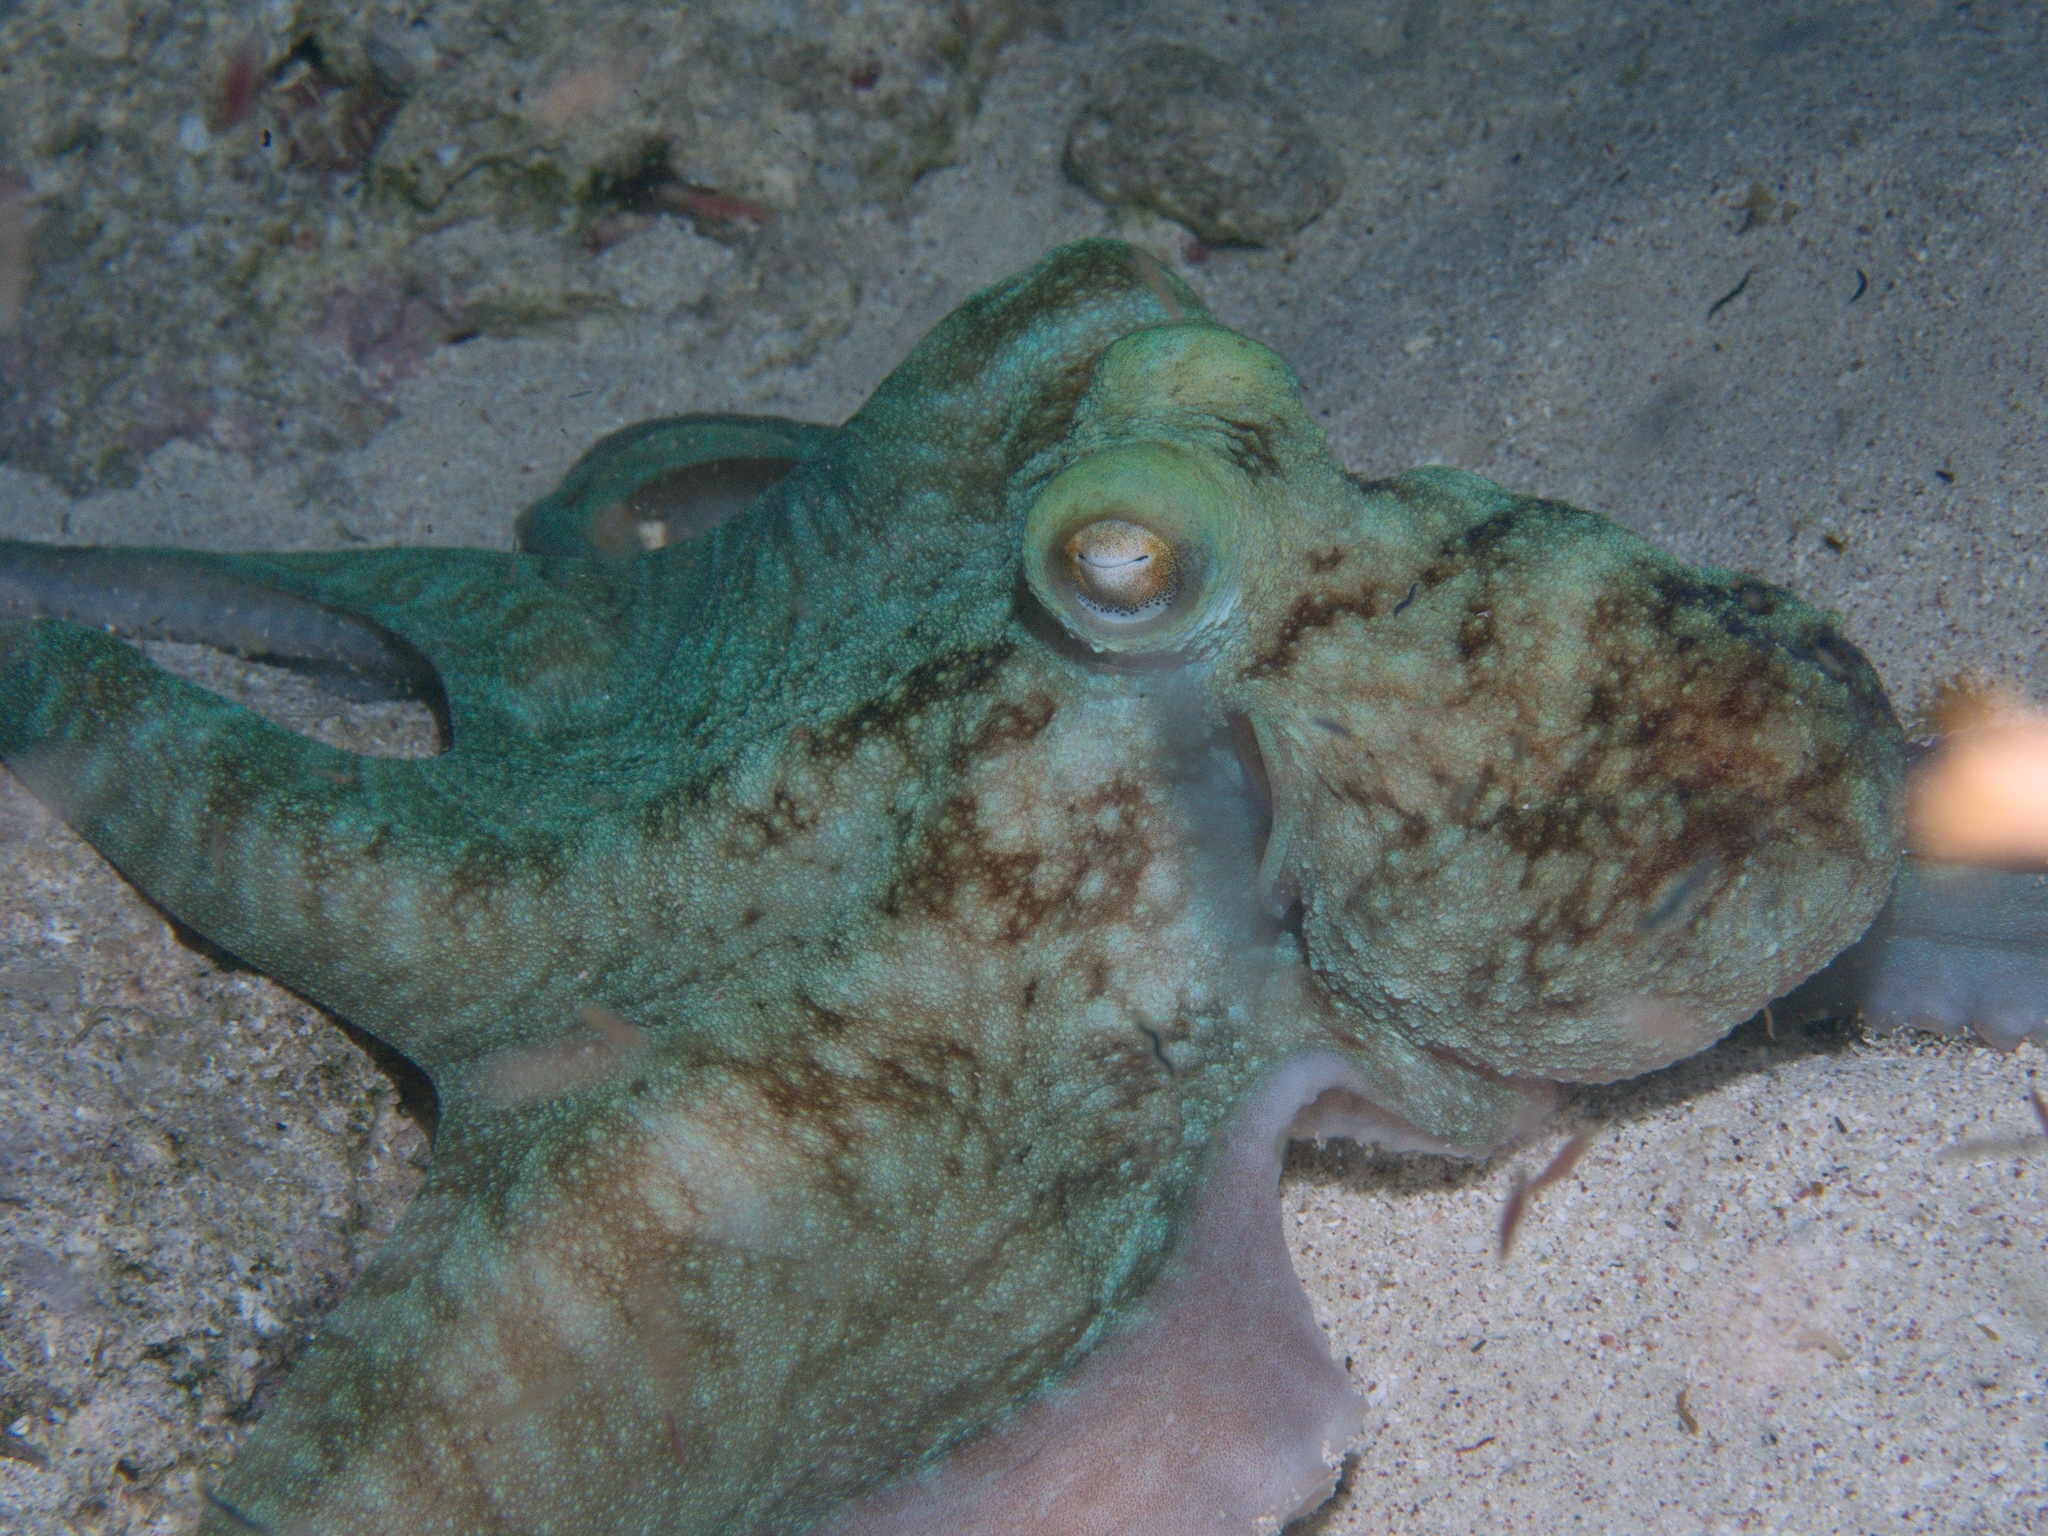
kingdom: Animalia
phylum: Mollusca
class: Cephalopoda
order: Octopoda
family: Octopodidae
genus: Octopus
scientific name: Octopus briareus
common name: Caribbean reef octopus
